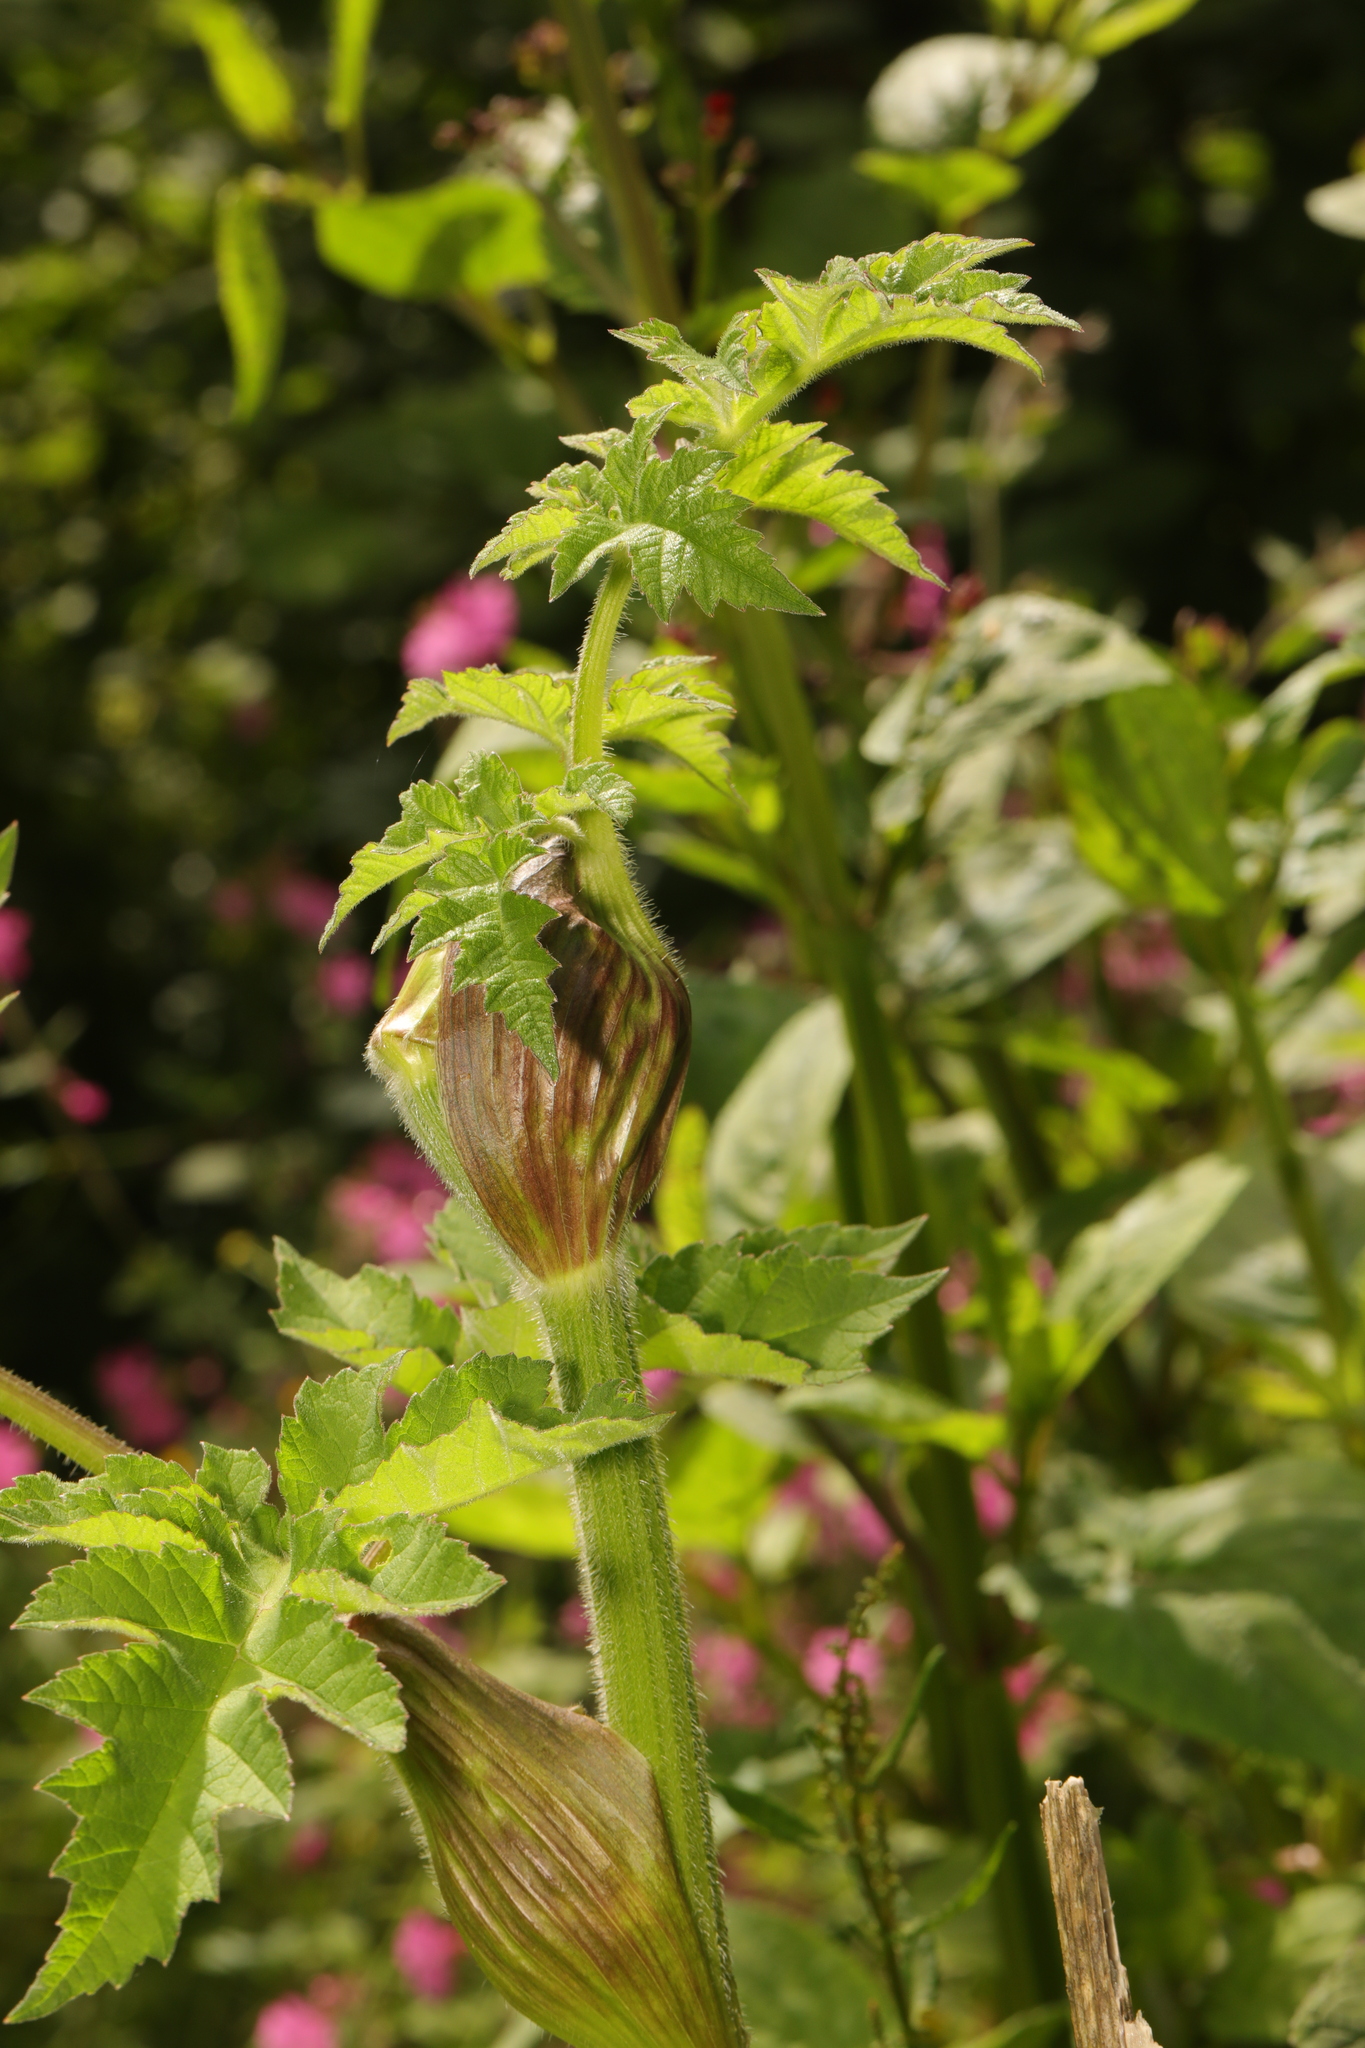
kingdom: Plantae
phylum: Tracheophyta
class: Magnoliopsida
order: Apiales
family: Apiaceae
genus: Heracleum
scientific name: Heracleum sphondylium
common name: Hogweed
